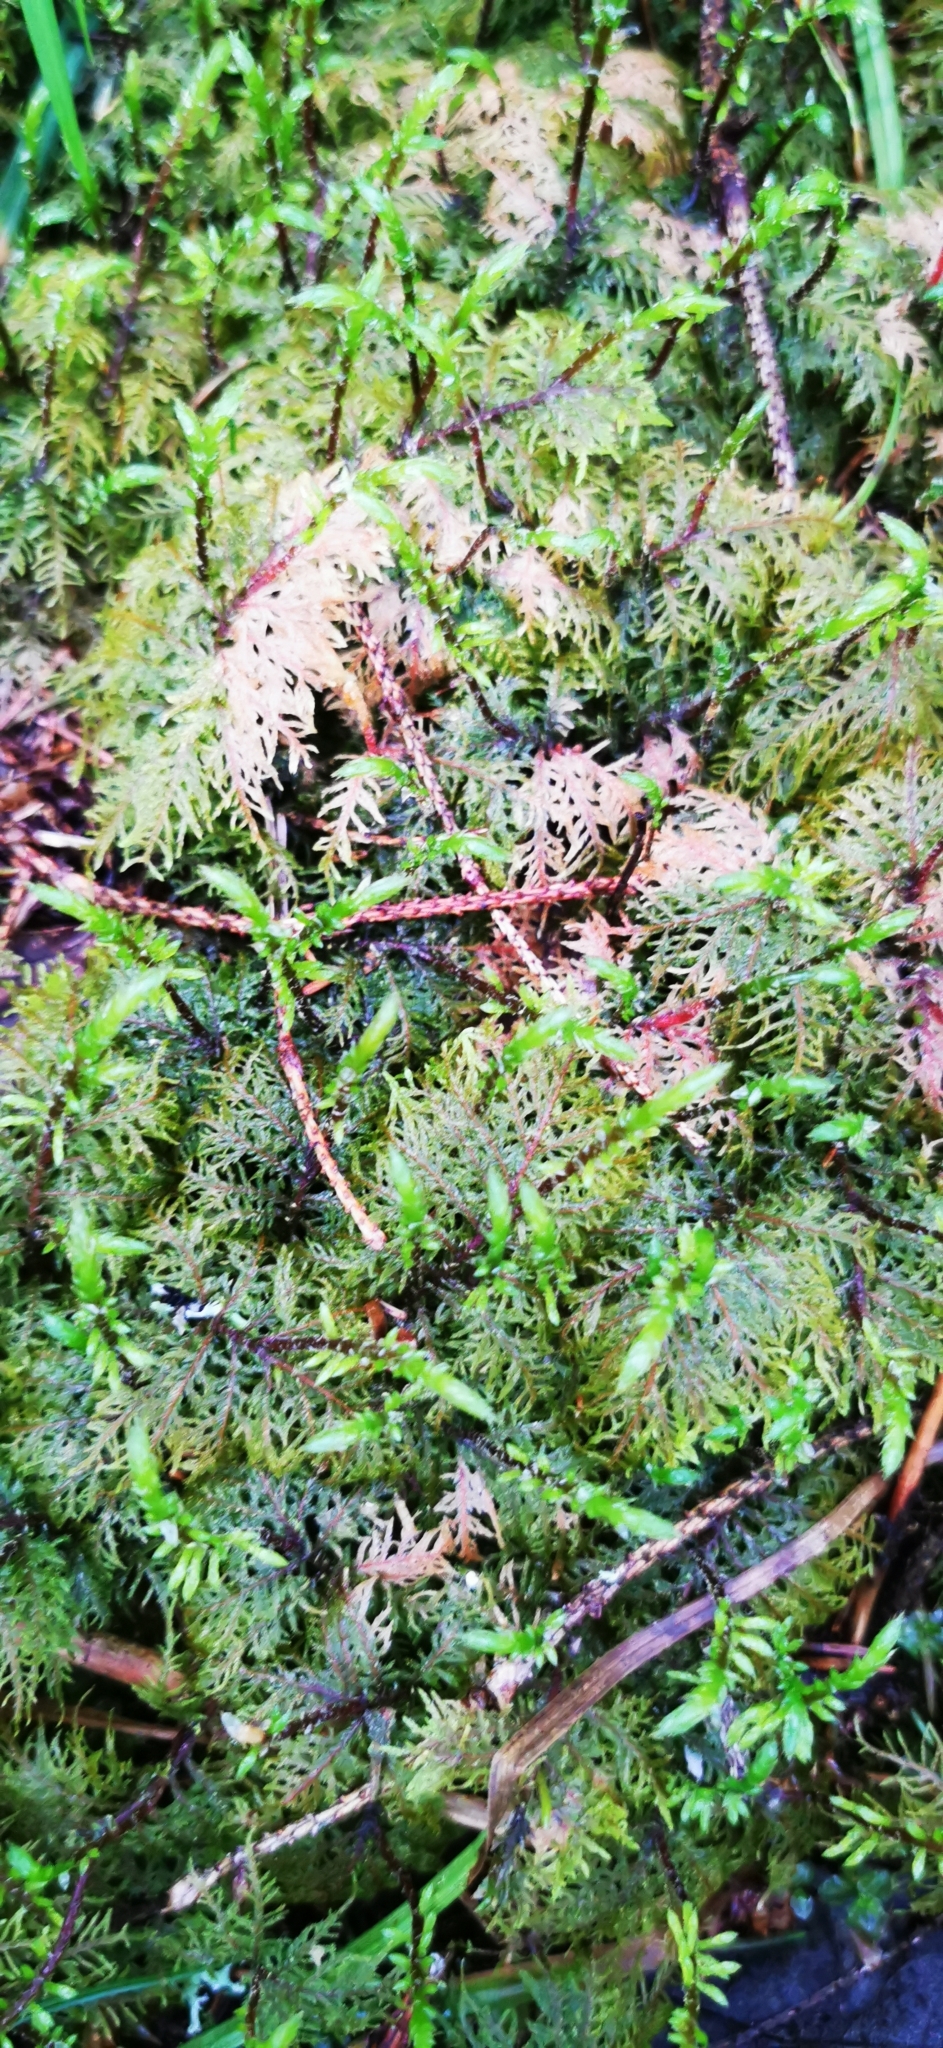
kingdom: Plantae
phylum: Bryophyta
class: Bryopsida
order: Hypnales
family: Hylocomiaceae
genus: Hylocomium
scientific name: Hylocomium splendens
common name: Stairstep moss
